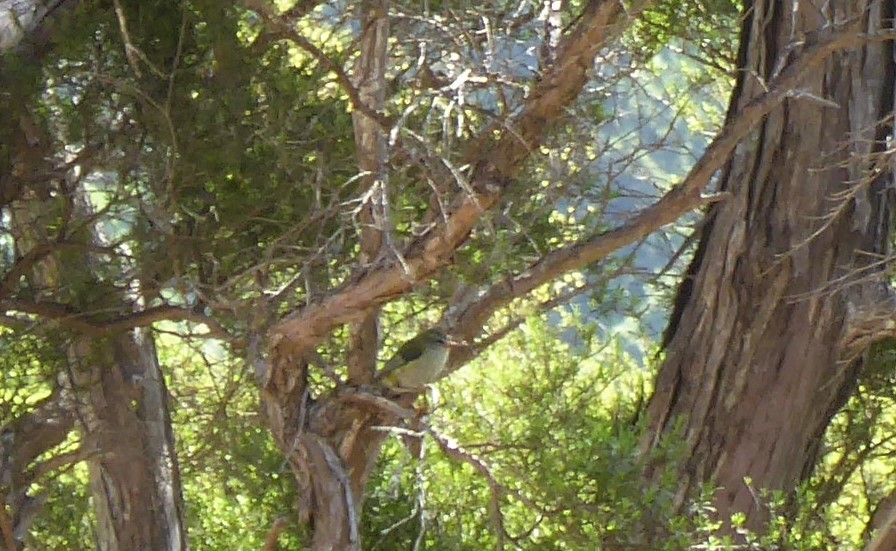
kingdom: Animalia
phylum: Chordata
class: Aves
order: Passeriformes
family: Acanthisittidae
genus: Acanthisitta
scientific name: Acanthisitta chloris
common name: Rifleman
